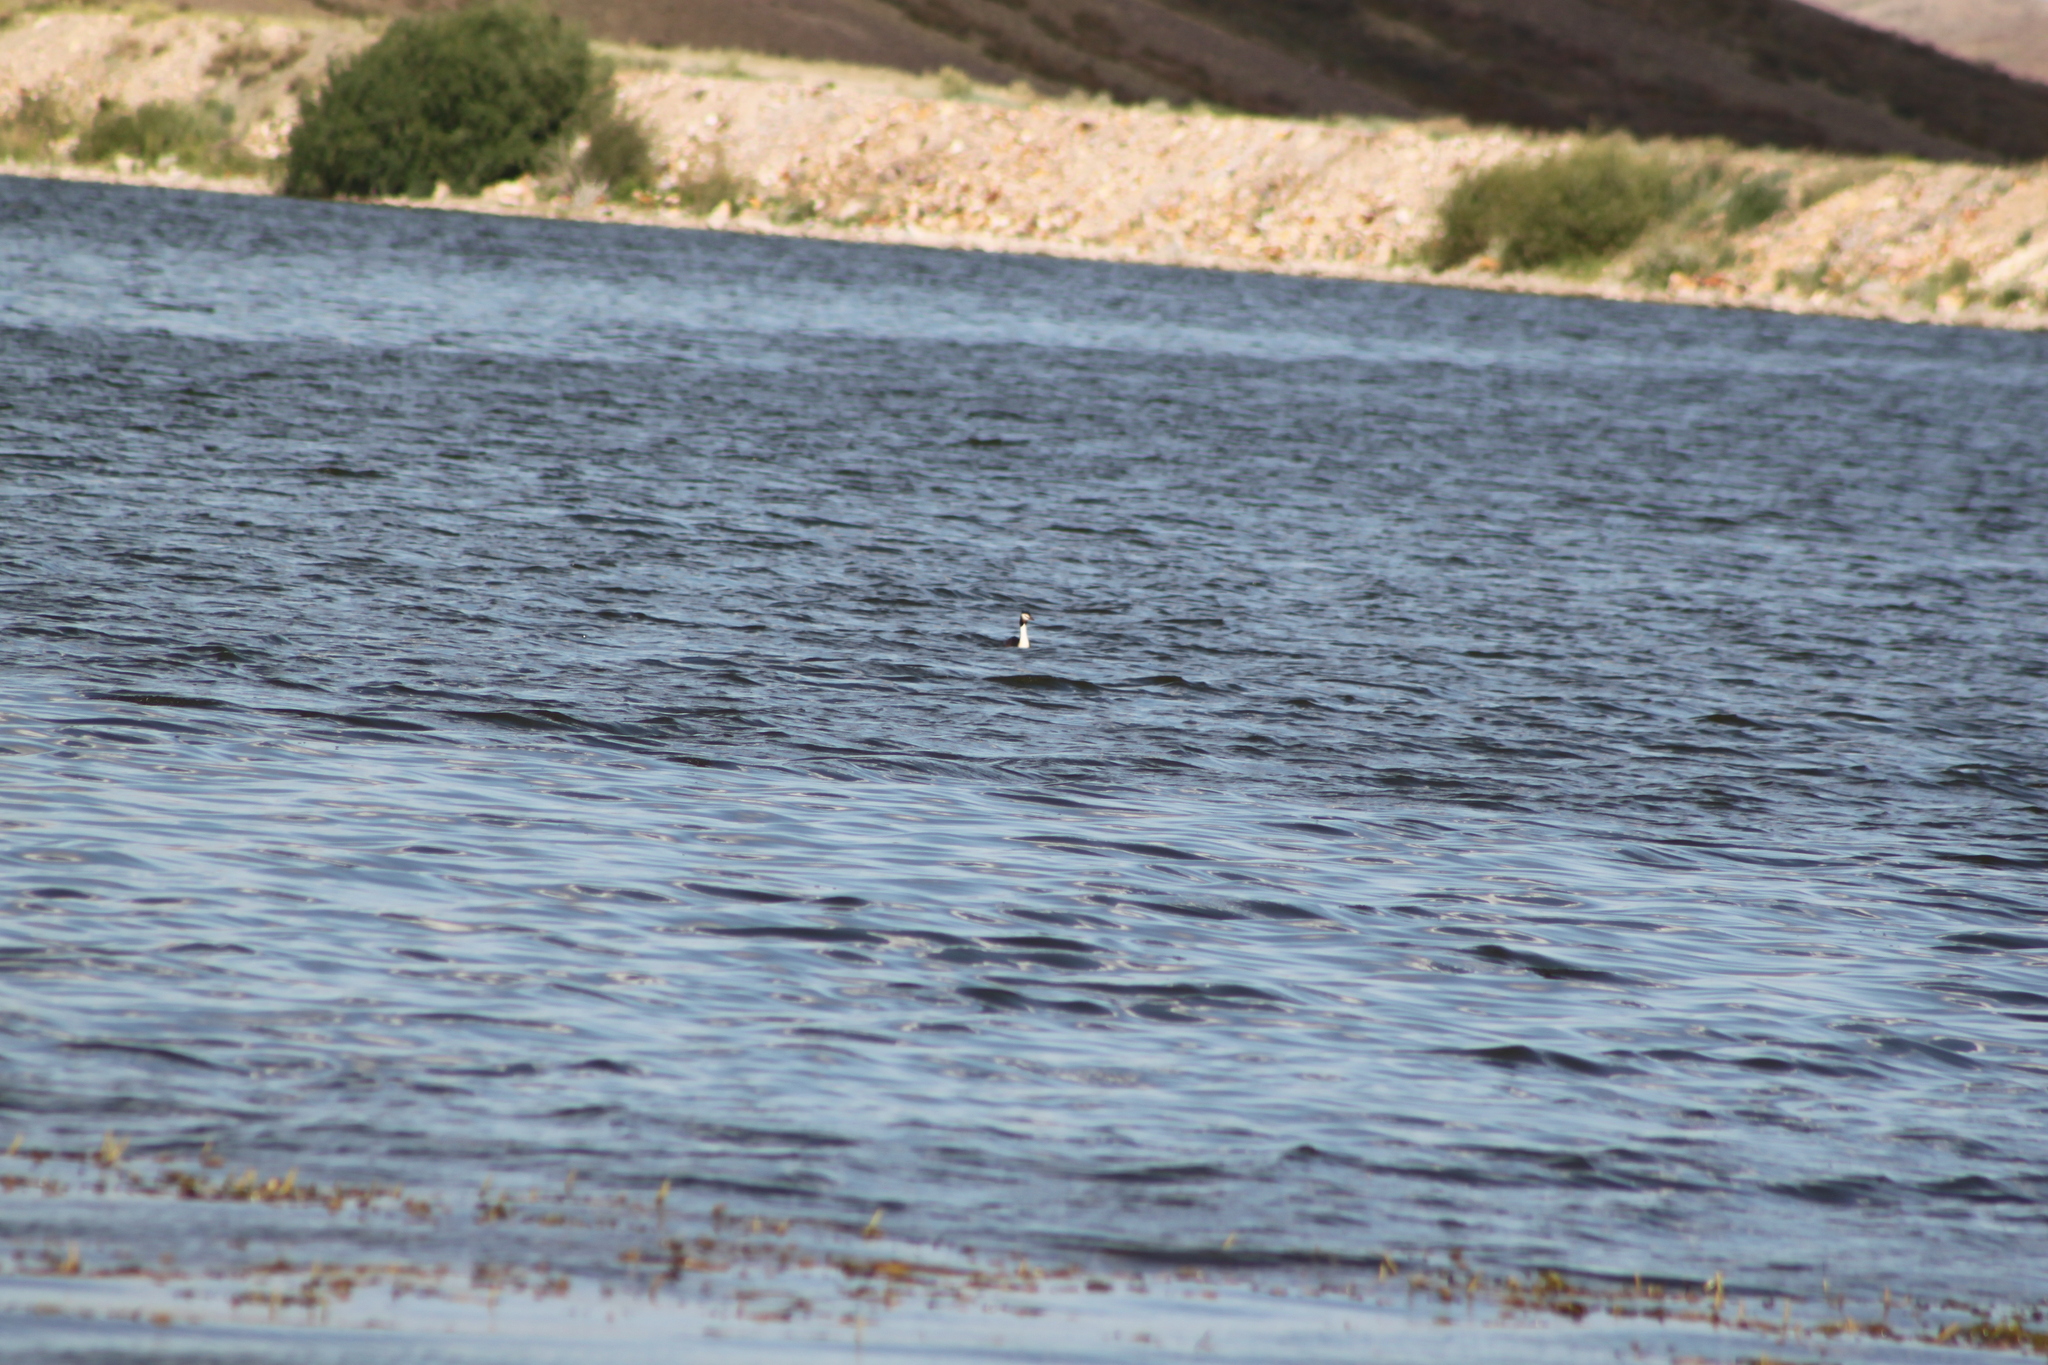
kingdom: Animalia
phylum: Chordata
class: Aves
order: Podicipediformes
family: Podicipedidae
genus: Podiceps
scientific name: Podiceps cristatus
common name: Great crested grebe
